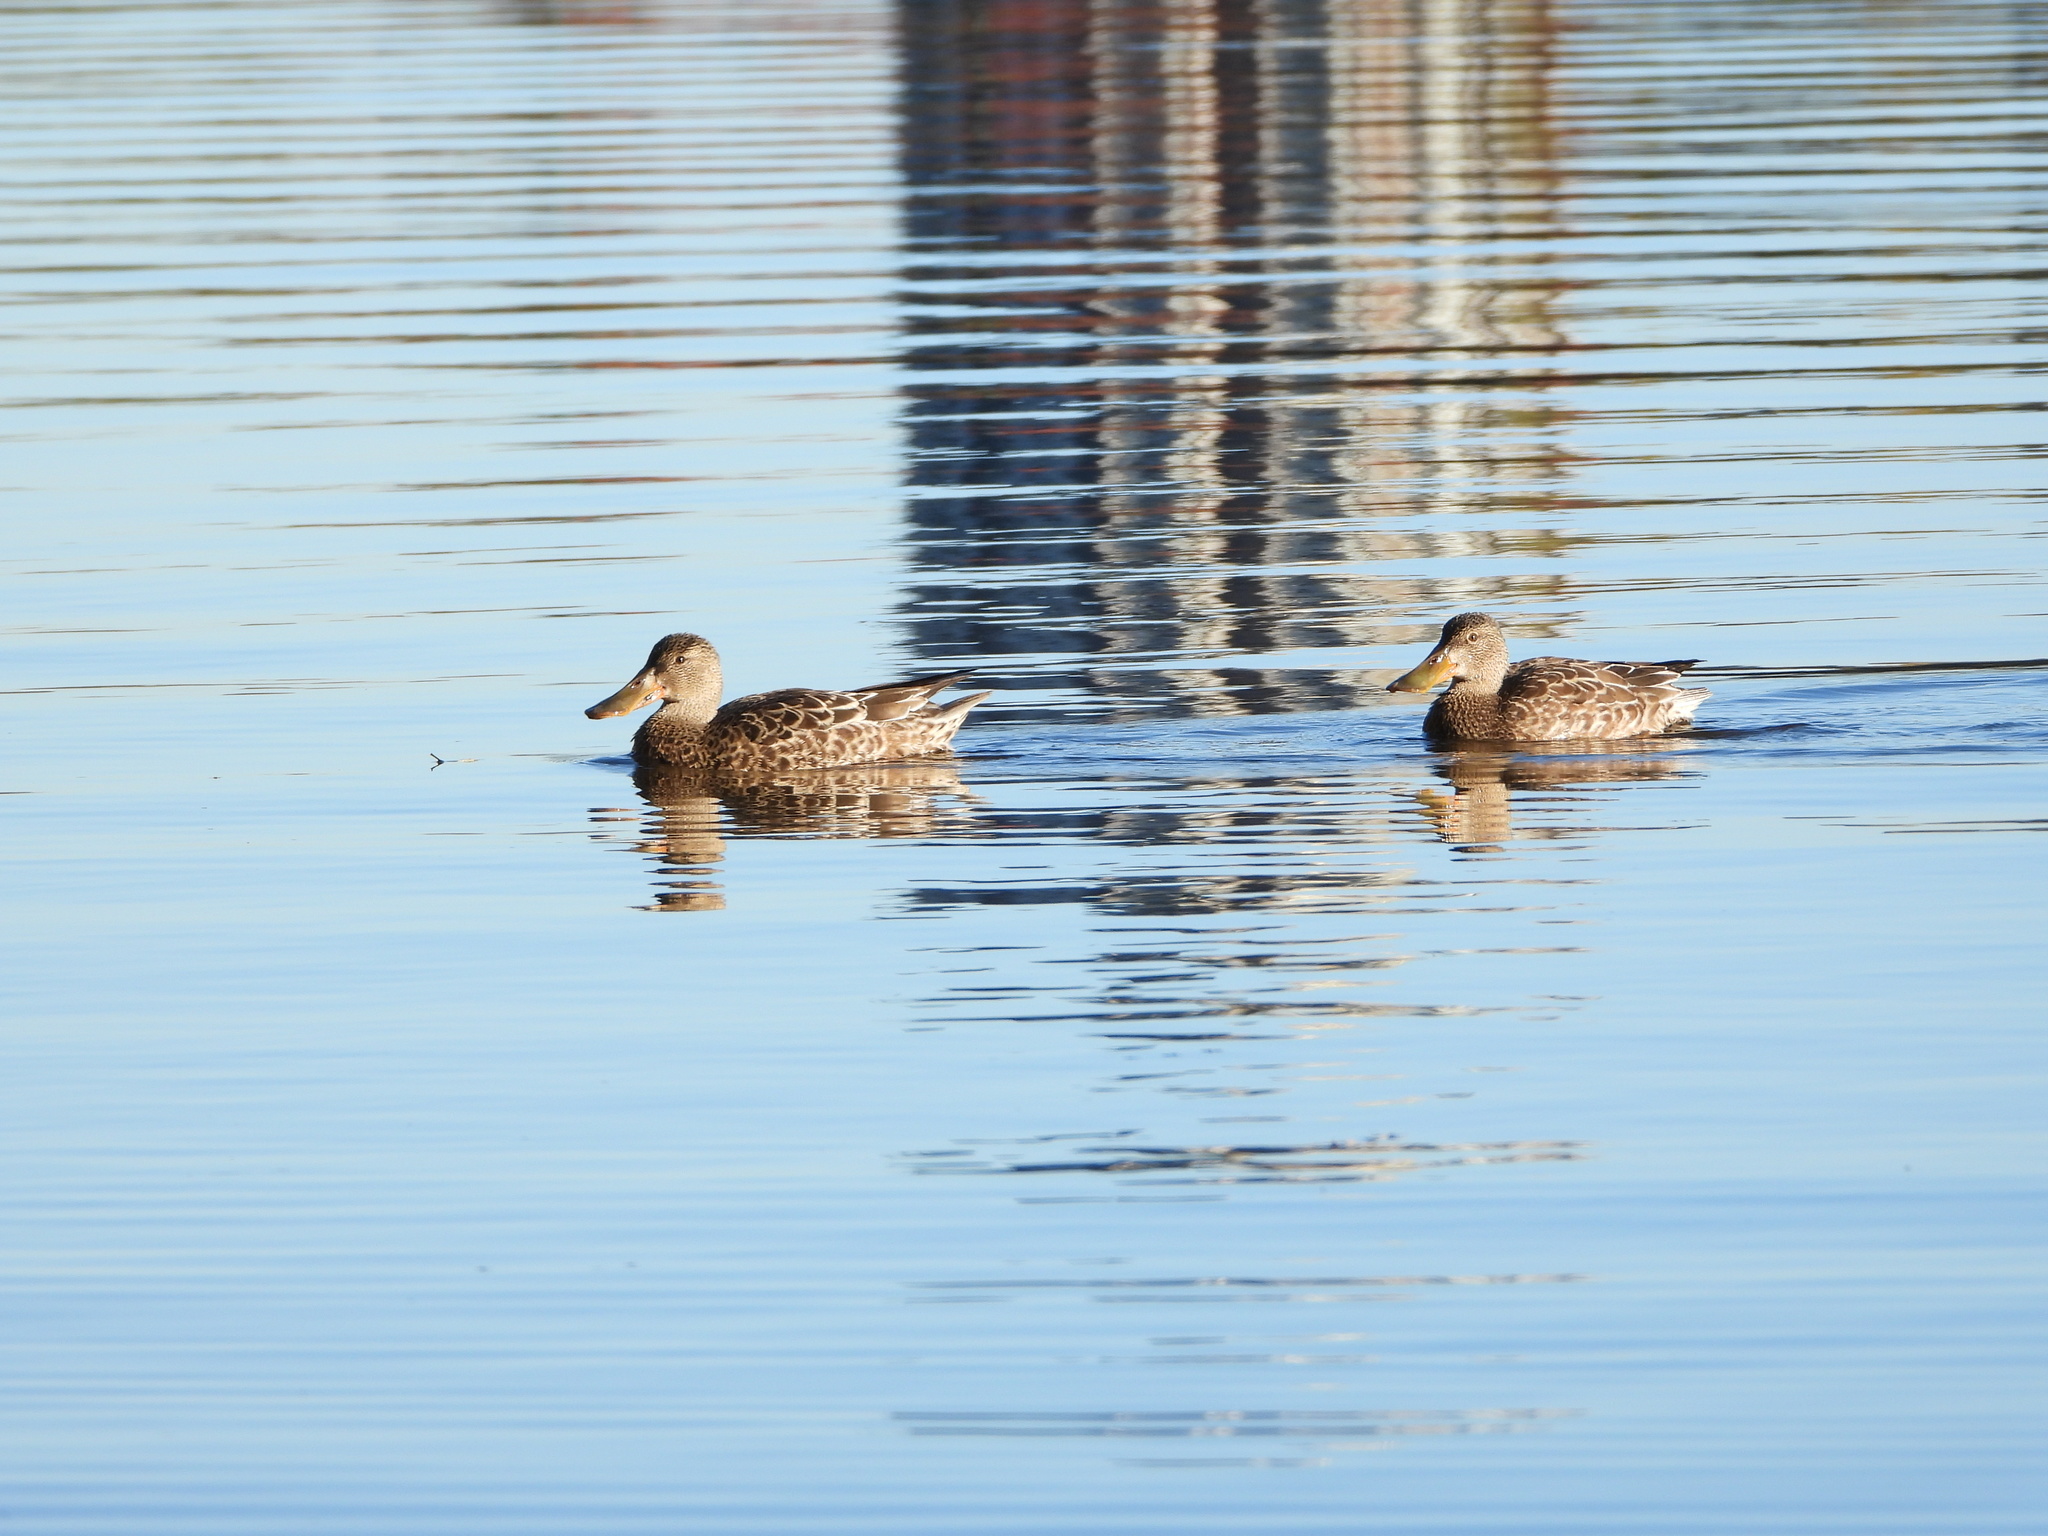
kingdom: Animalia
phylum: Chordata
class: Aves
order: Anseriformes
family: Anatidae
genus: Spatula
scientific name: Spatula clypeata
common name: Northern shoveler
